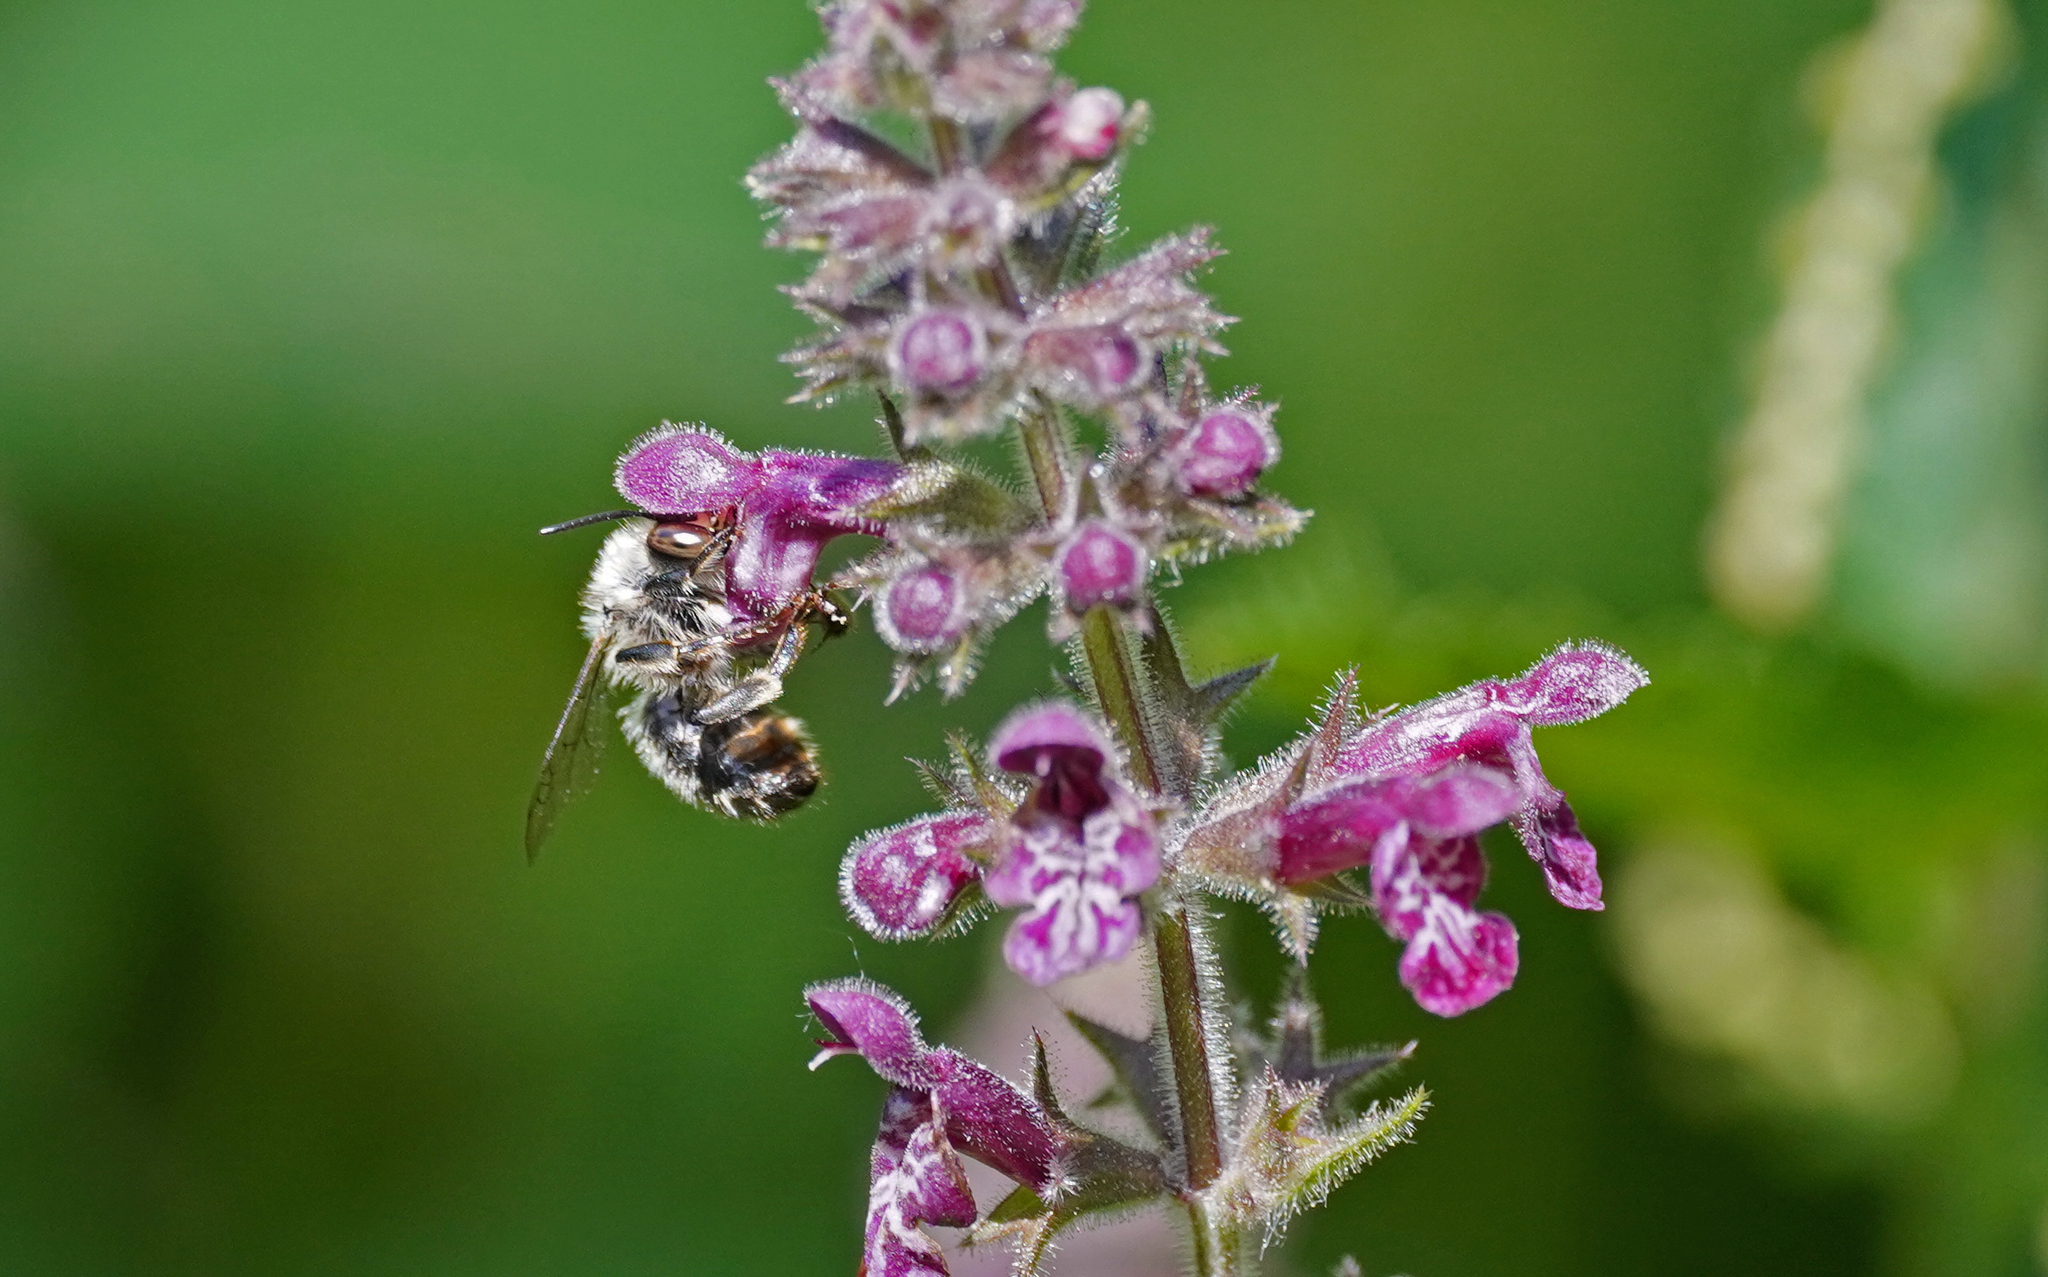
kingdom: Animalia
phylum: Arthropoda
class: Insecta
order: Hymenoptera
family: Apidae
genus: Anthophora
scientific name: Anthophora furcata
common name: Fork-tailed flower bee
